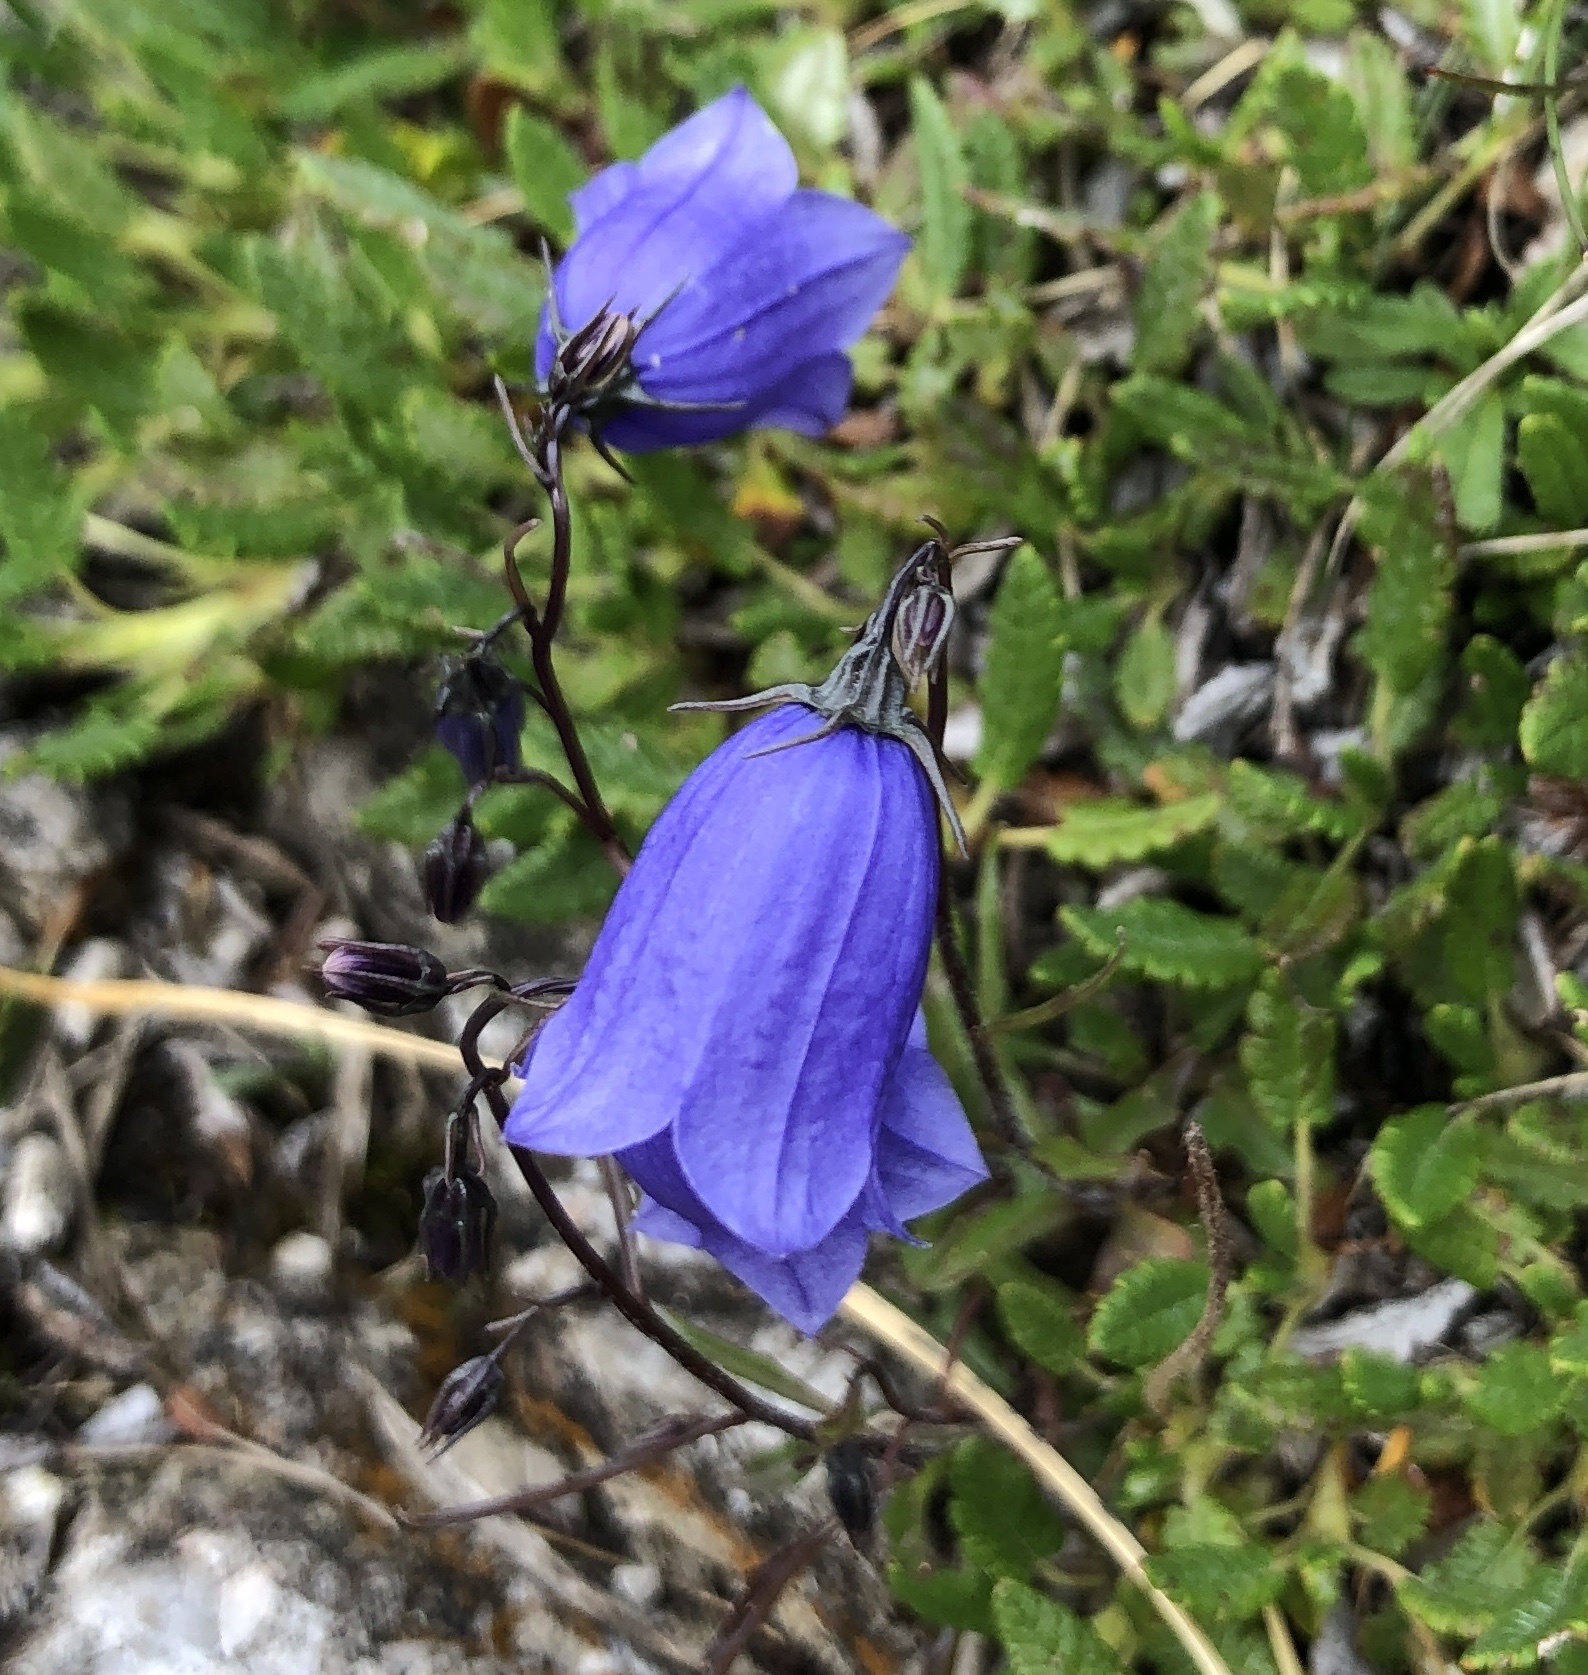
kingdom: Plantae
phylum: Tracheophyta
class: Magnoliopsida
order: Asterales
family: Campanulaceae
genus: Campanula
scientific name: Campanula cochleariifolia
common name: Fairies'-thimbles
